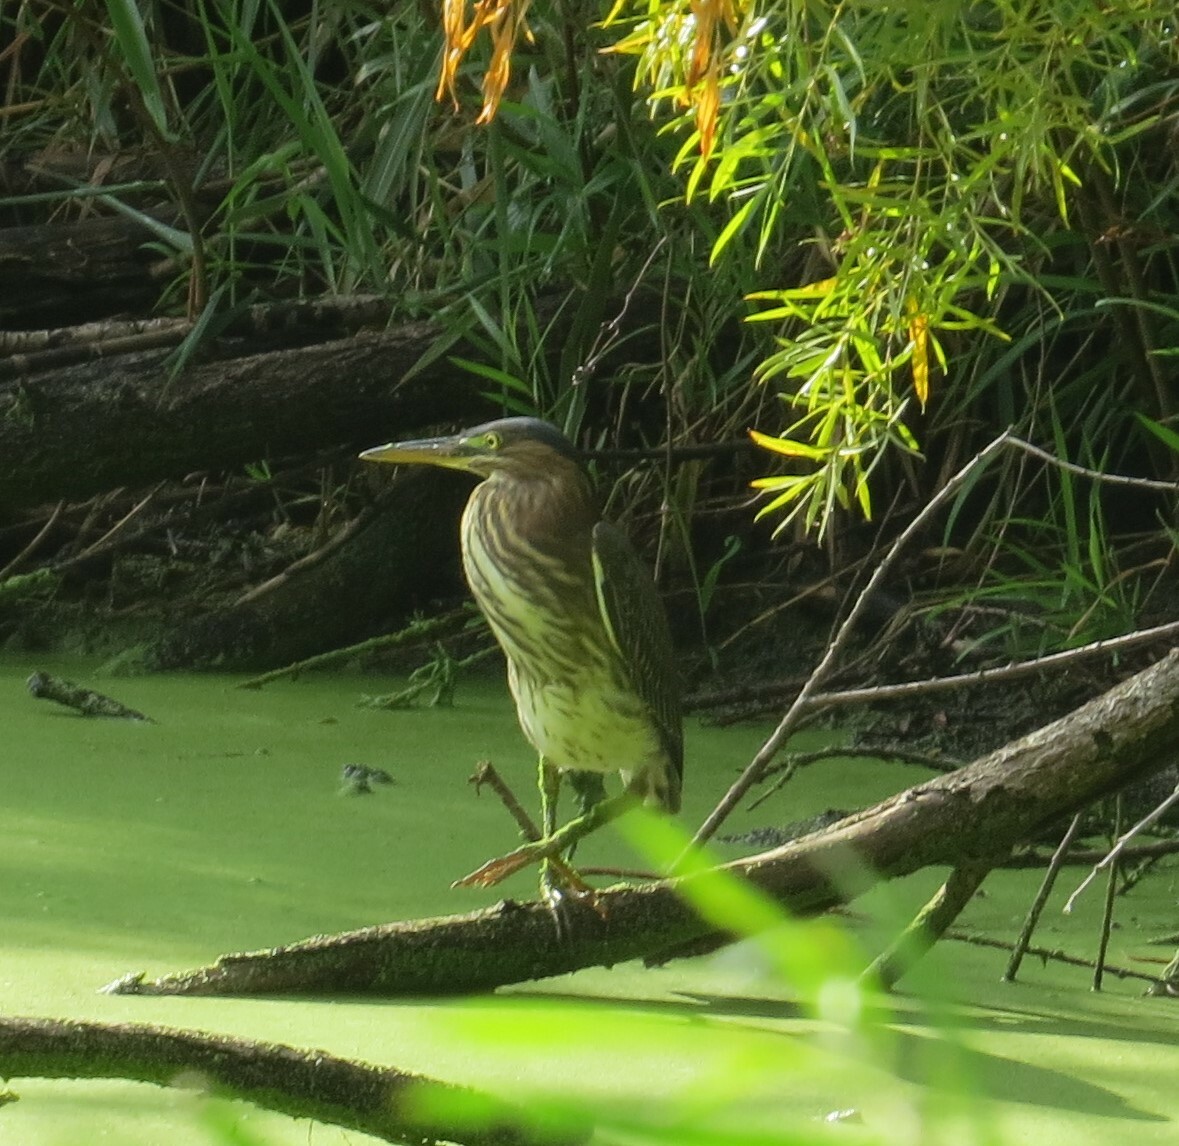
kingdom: Animalia
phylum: Chordata
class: Aves
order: Pelecaniformes
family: Ardeidae
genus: Butorides
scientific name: Butorides virescens
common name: Green heron
